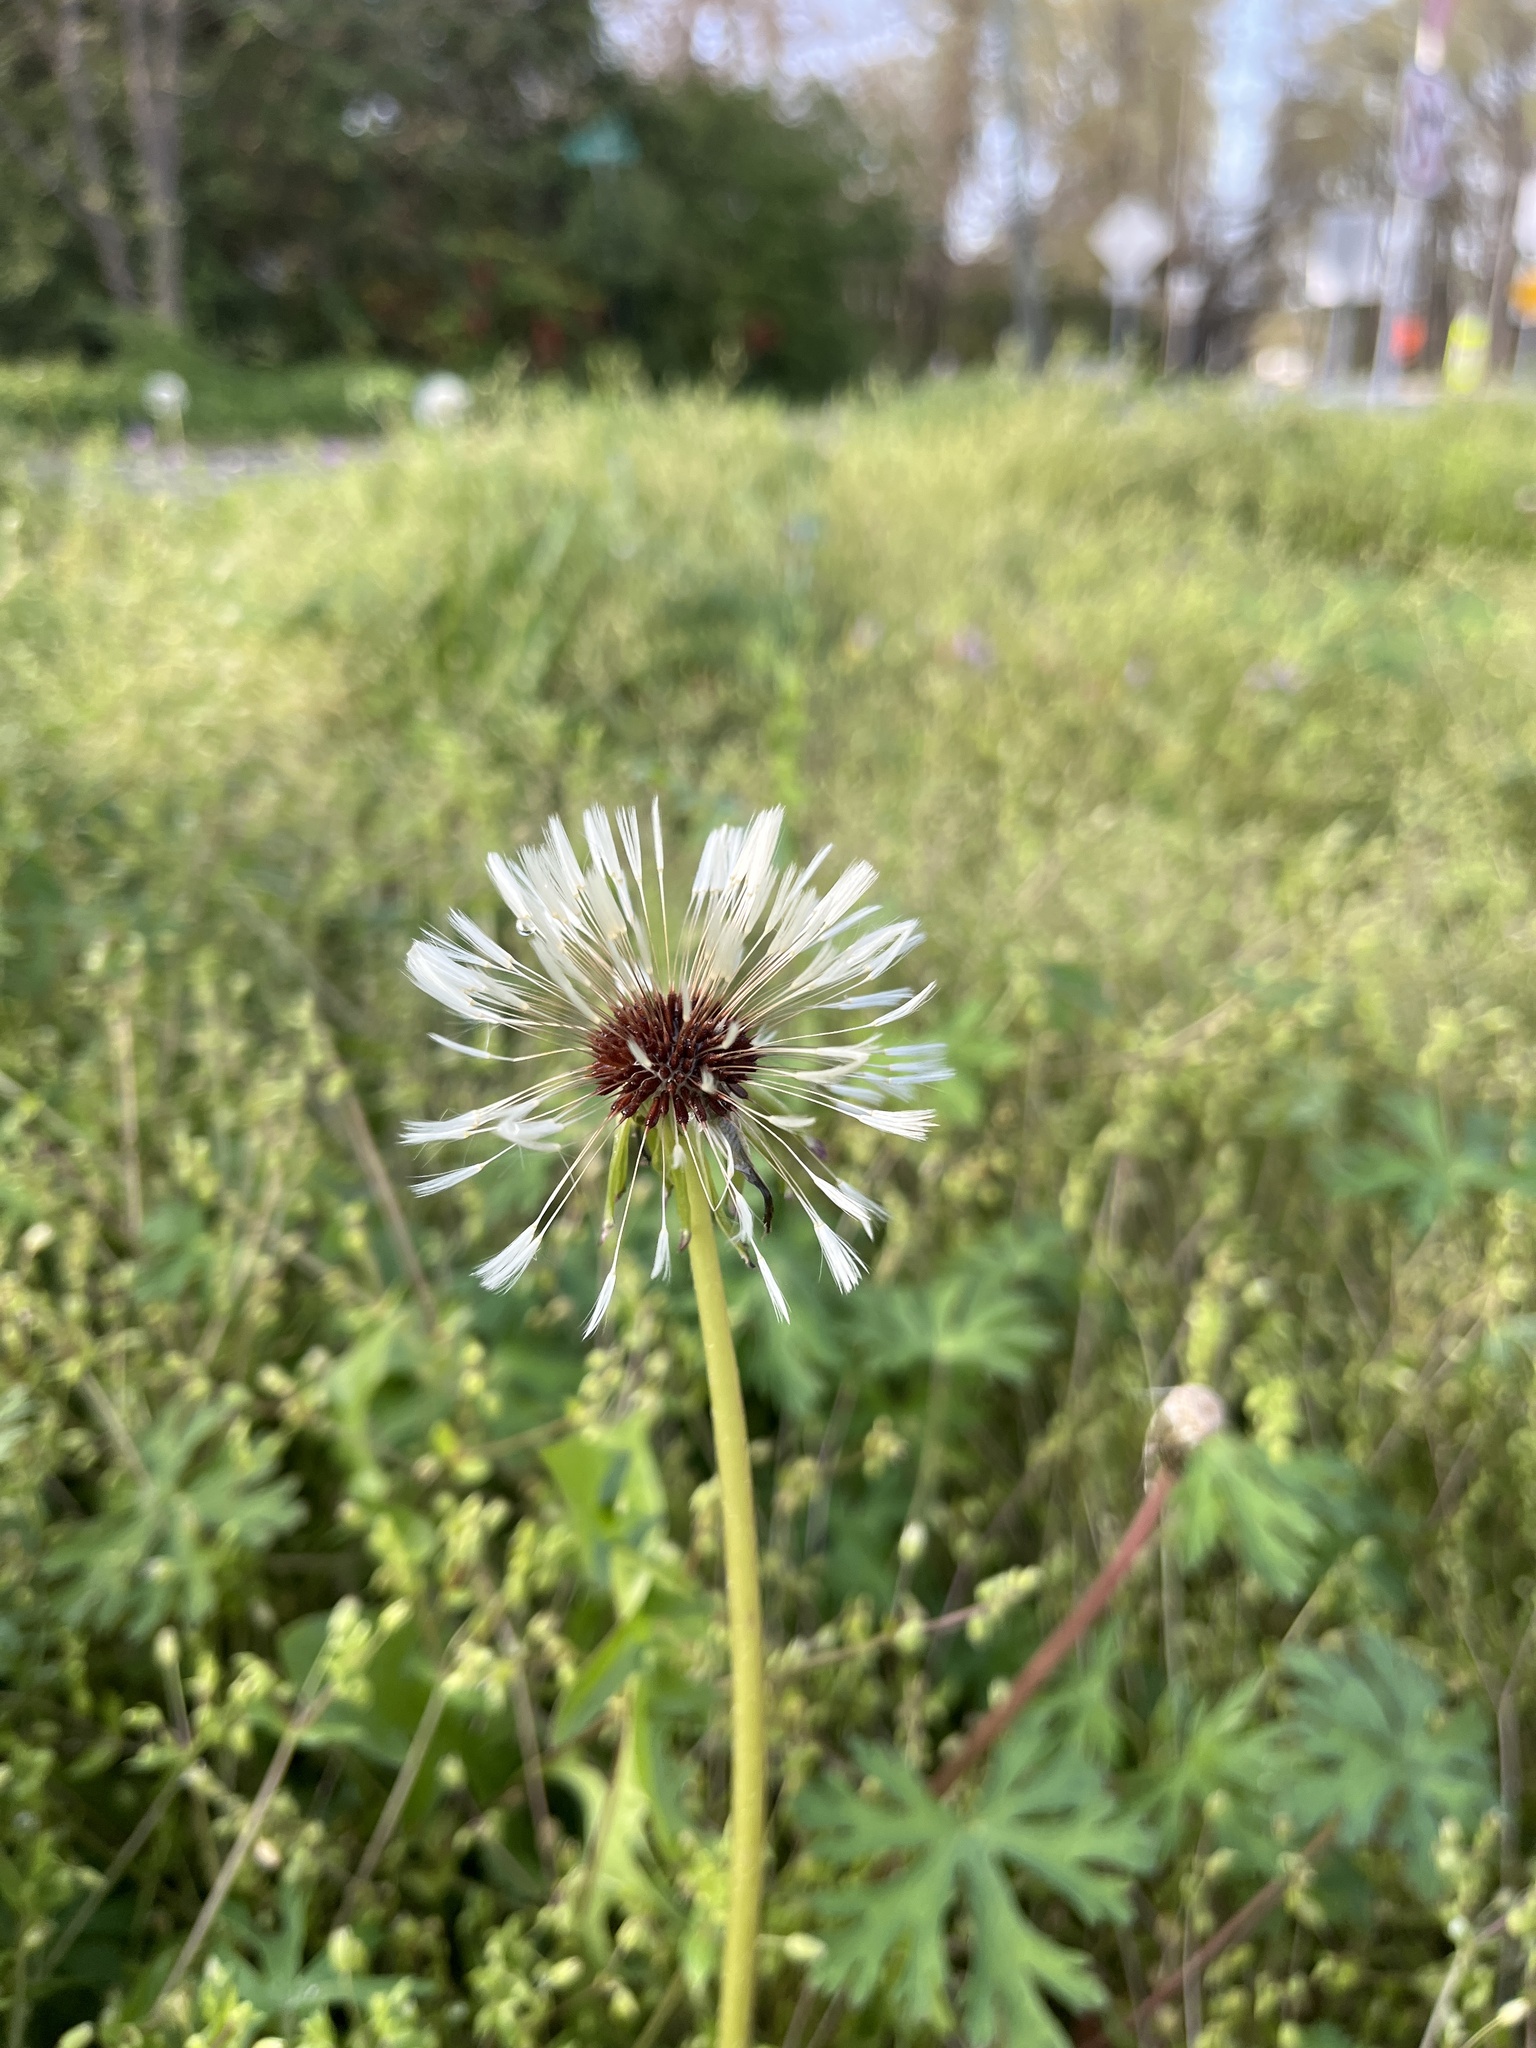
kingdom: Plantae
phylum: Tracheophyta
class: Magnoliopsida
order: Asterales
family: Asteraceae
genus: Taraxacum
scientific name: Taraxacum erythrospermum
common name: Rock dandelion
